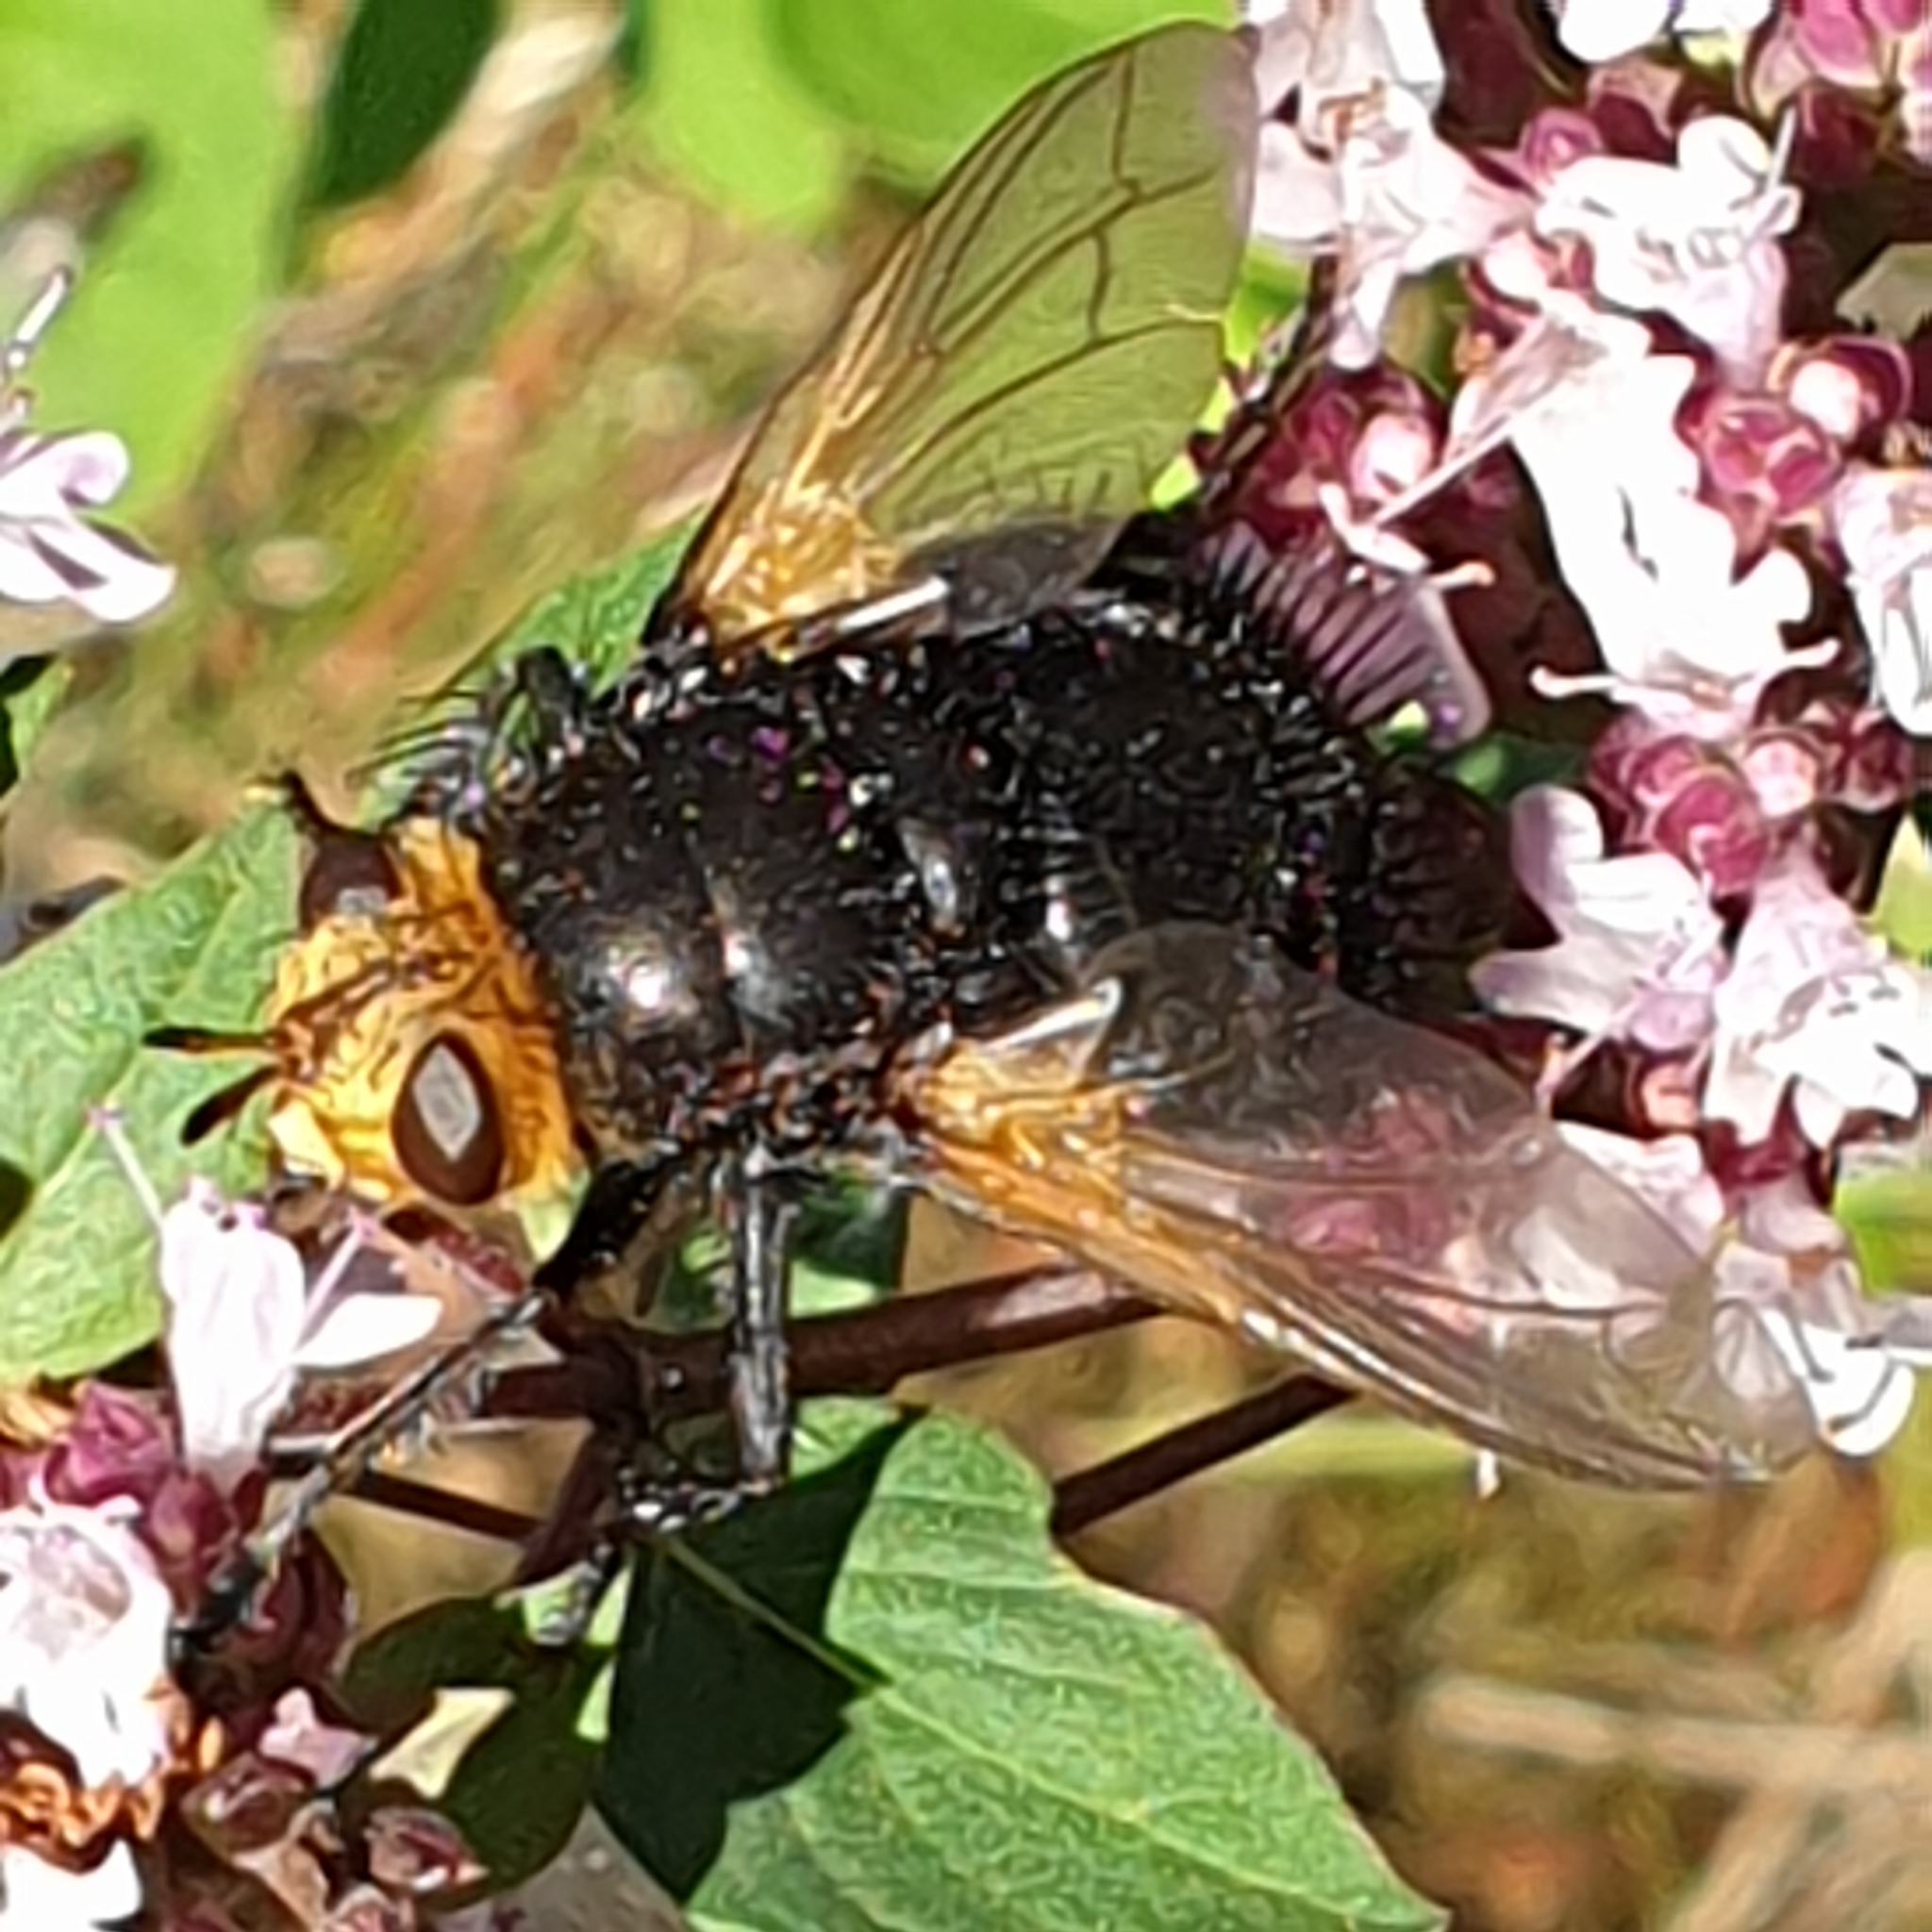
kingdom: Animalia
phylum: Arthropoda
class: Insecta
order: Diptera
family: Tachinidae
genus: Tachina
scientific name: Tachina grossa
